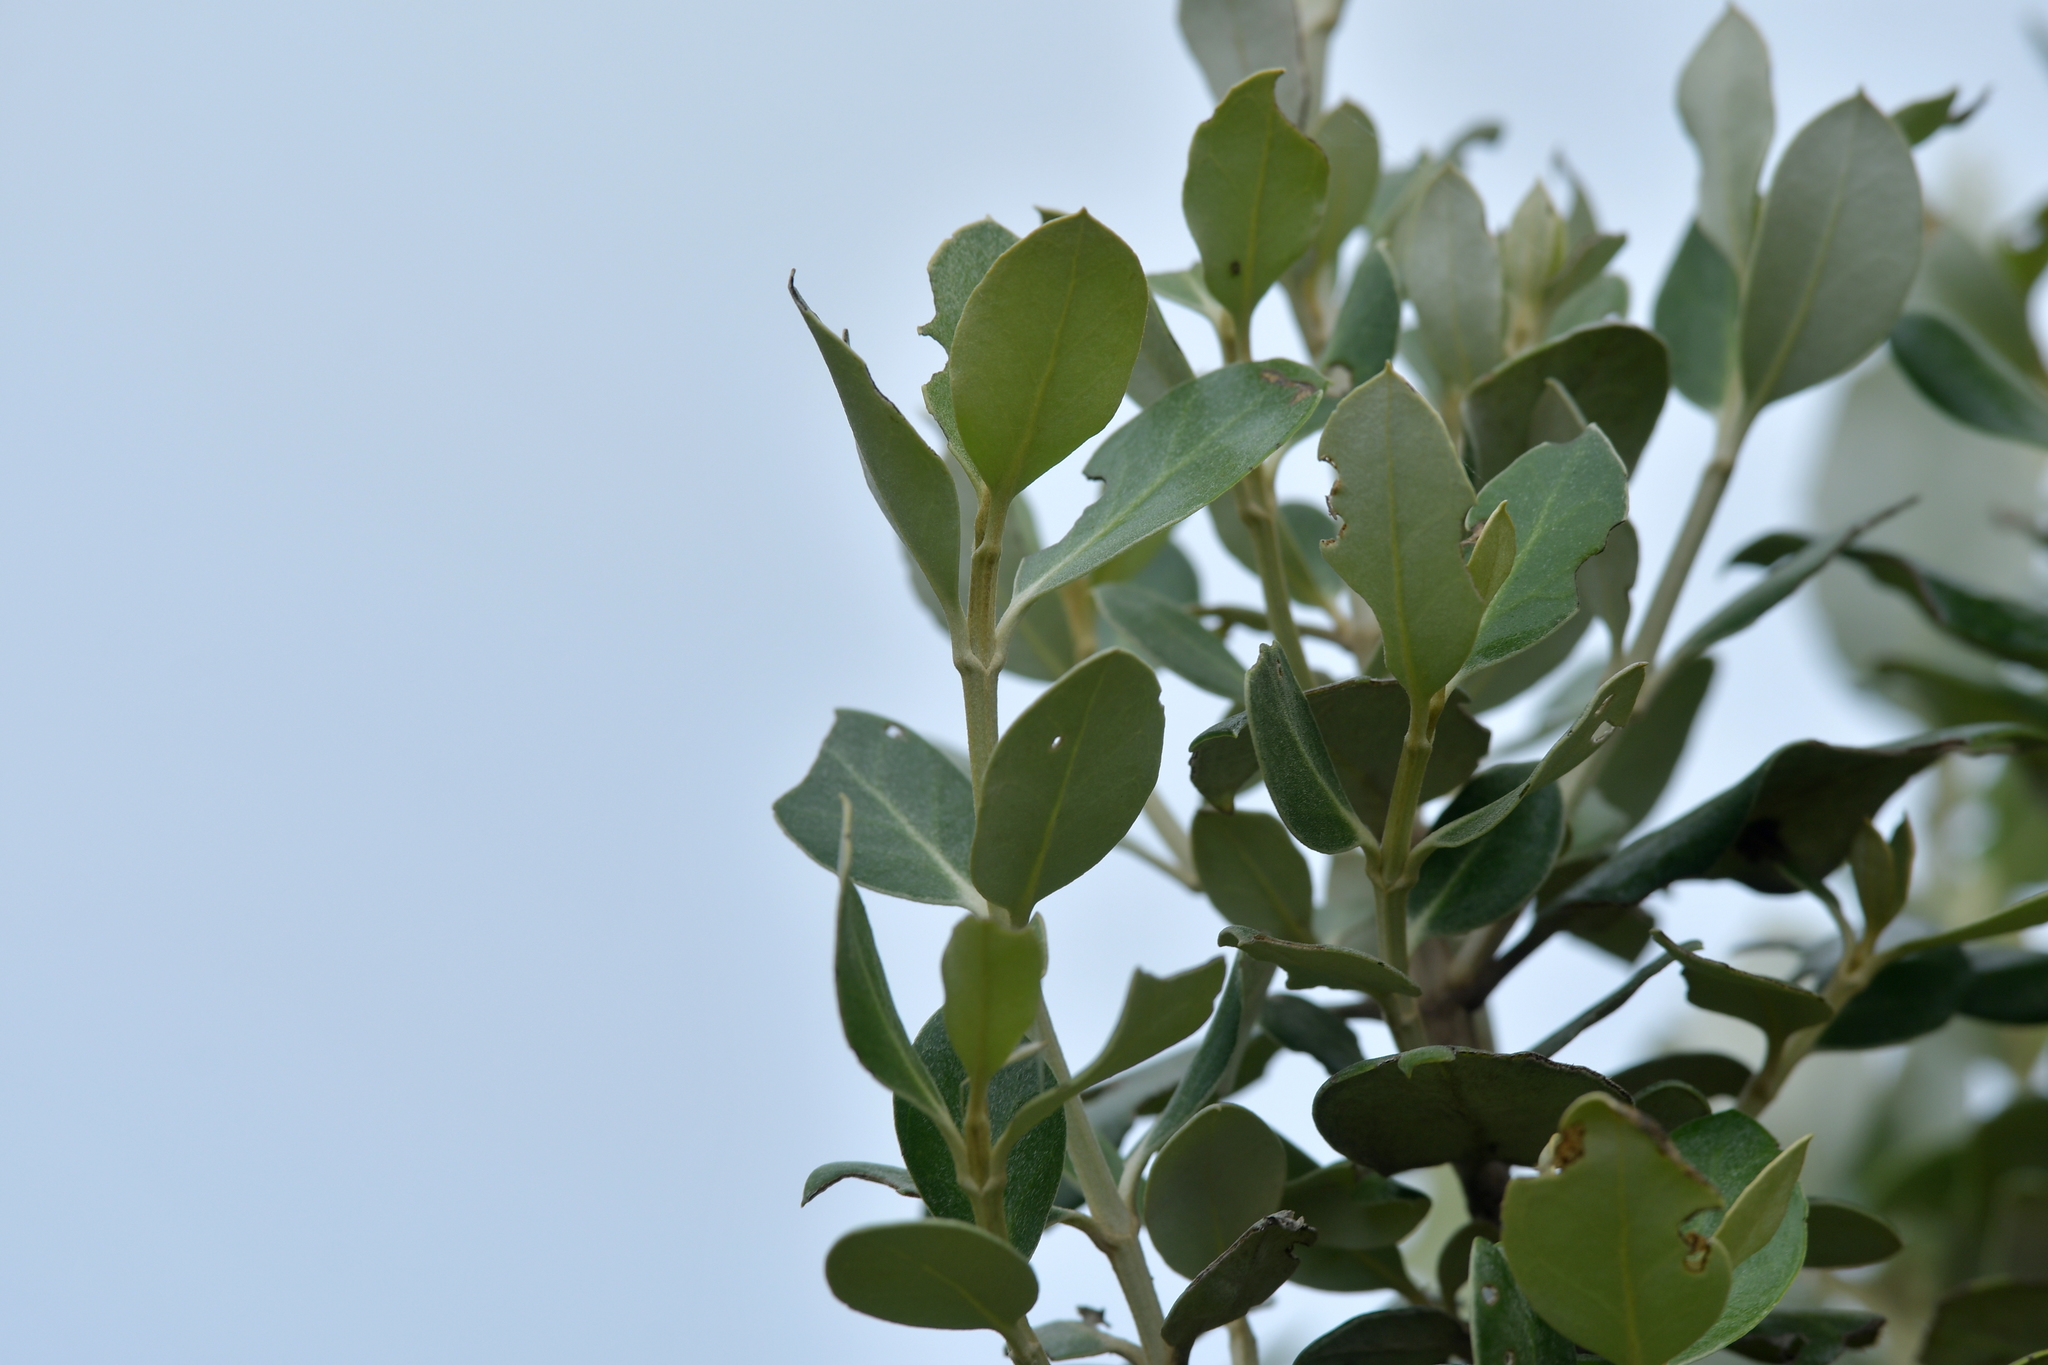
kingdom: Plantae
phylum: Tracheophyta
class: Magnoliopsida
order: Asterales
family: Asteraceae
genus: Olearia
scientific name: Olearia traversiorum
